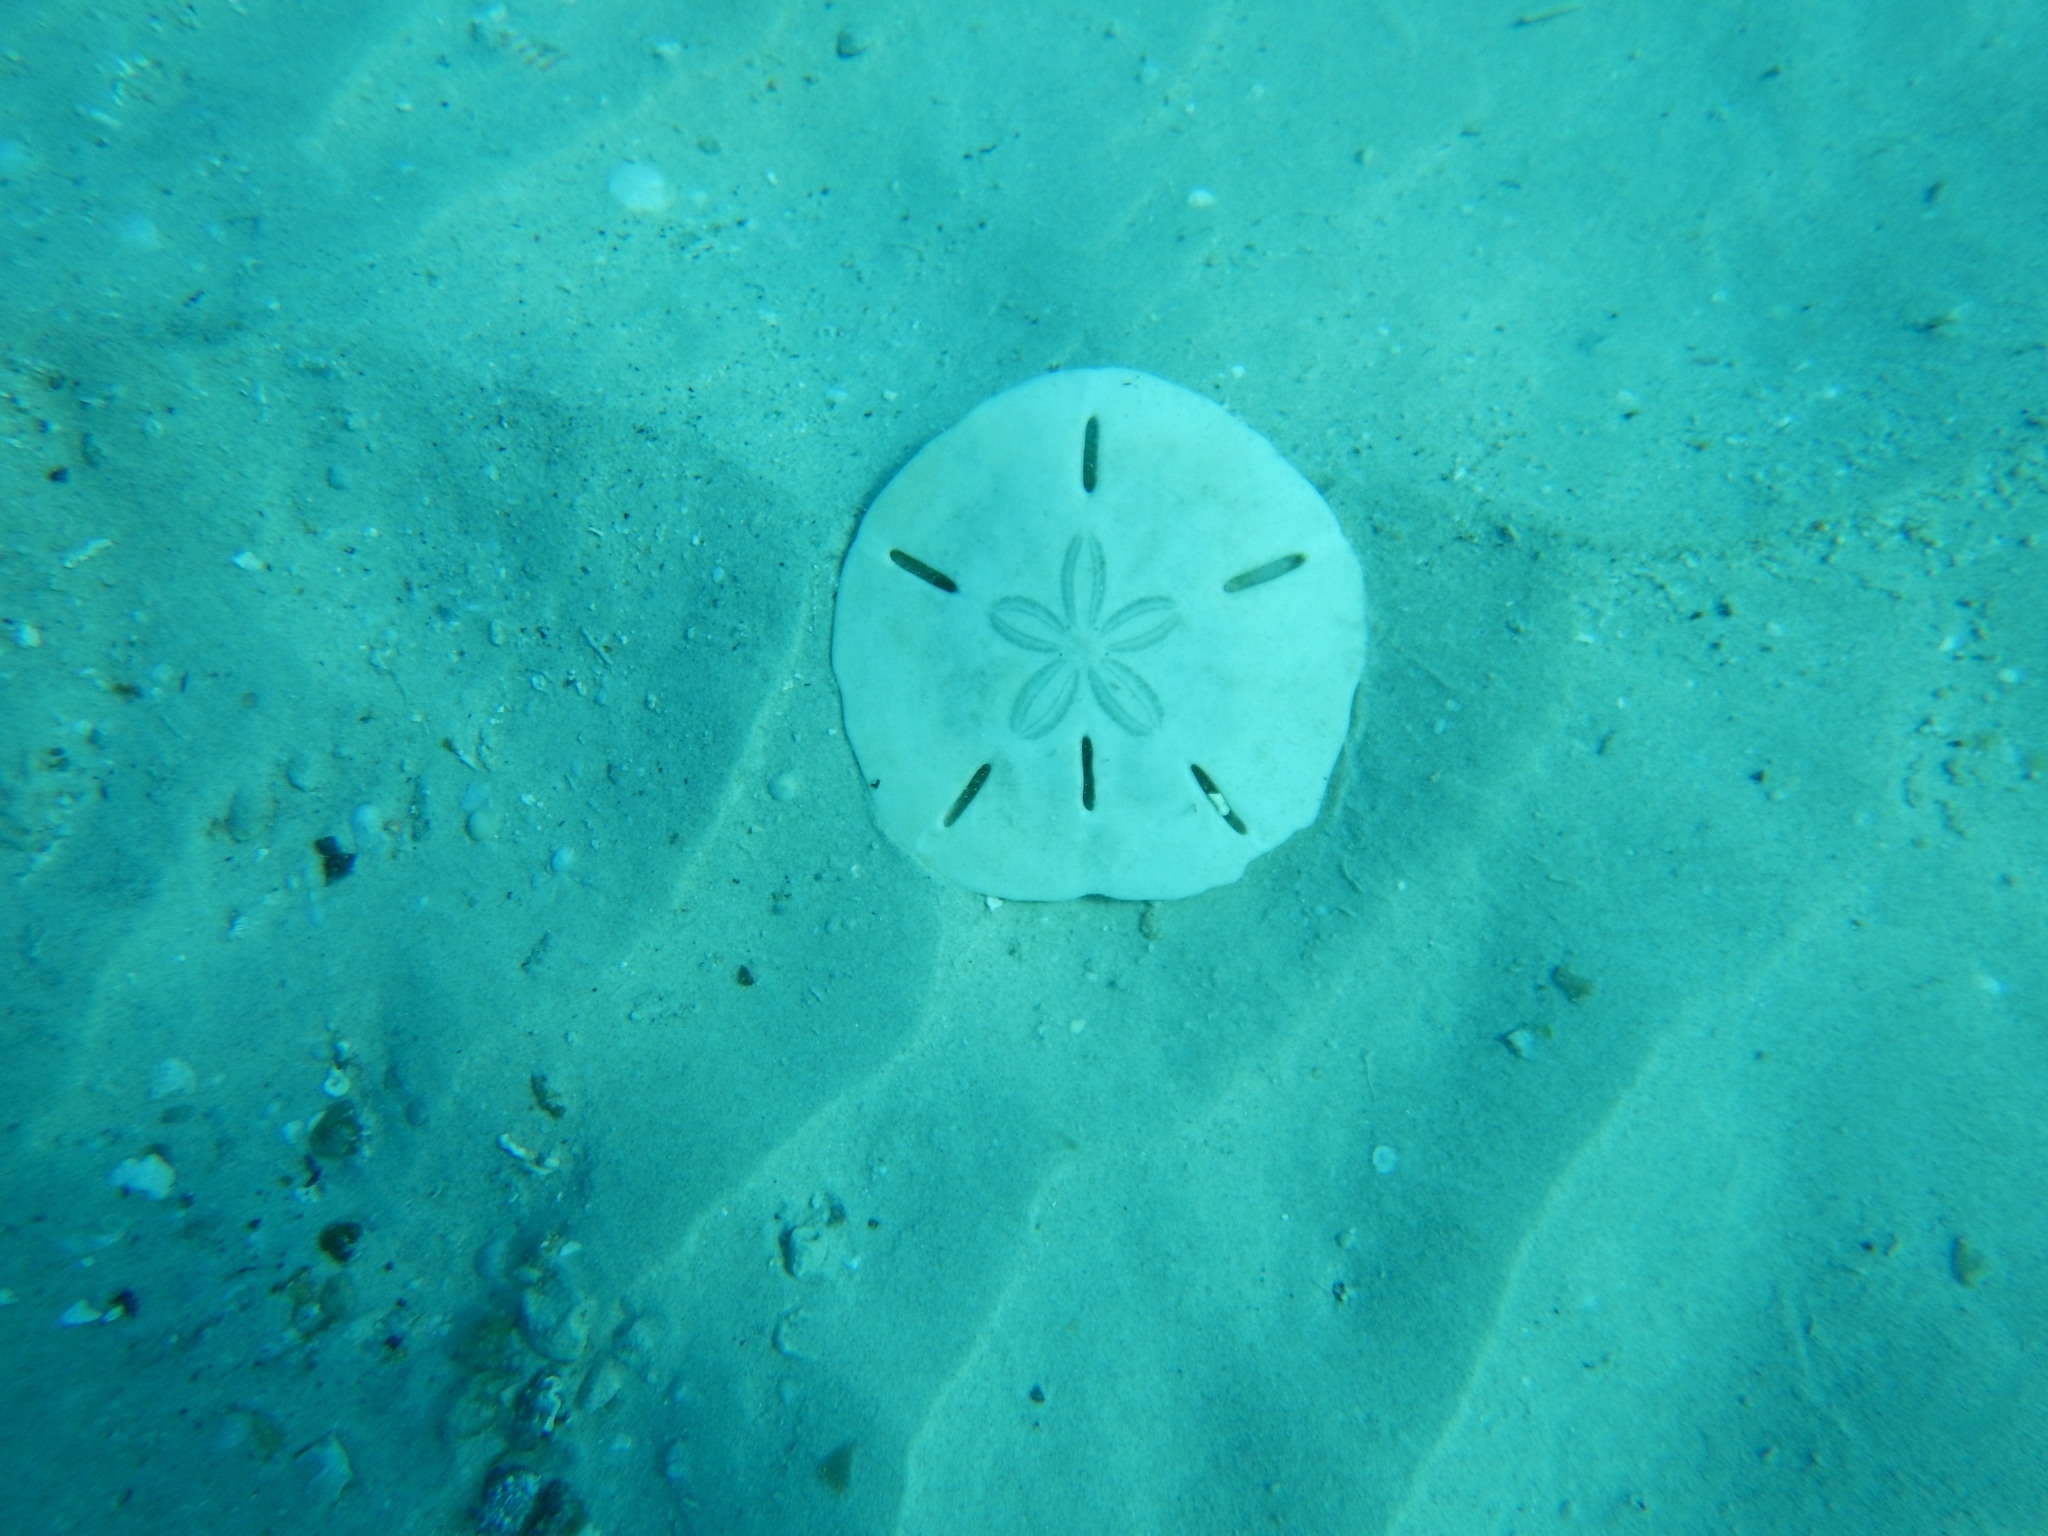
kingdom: Animalia
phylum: Echinodermata
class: Echinoidea
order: Echinolampadacea
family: Mellitidae
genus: Leodia
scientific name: Leodia sexiesperforata
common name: Sand dollar
